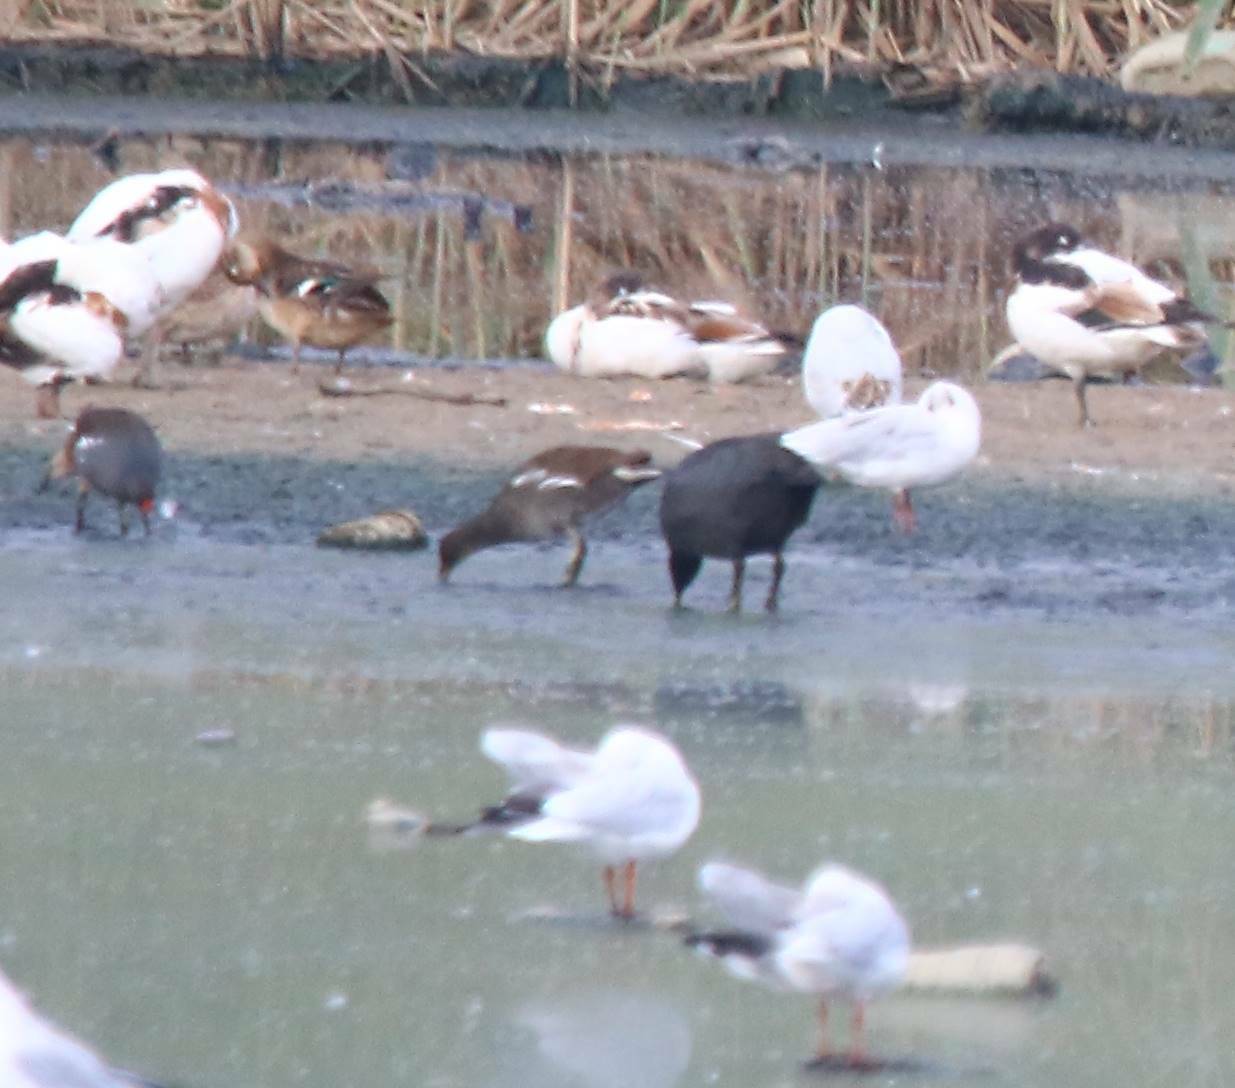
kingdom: Animalia
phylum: Chordata
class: Aves
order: Gruiformes
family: Rallidae
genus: Gallinula
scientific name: Gallinula chloropus
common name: Common moorhen
